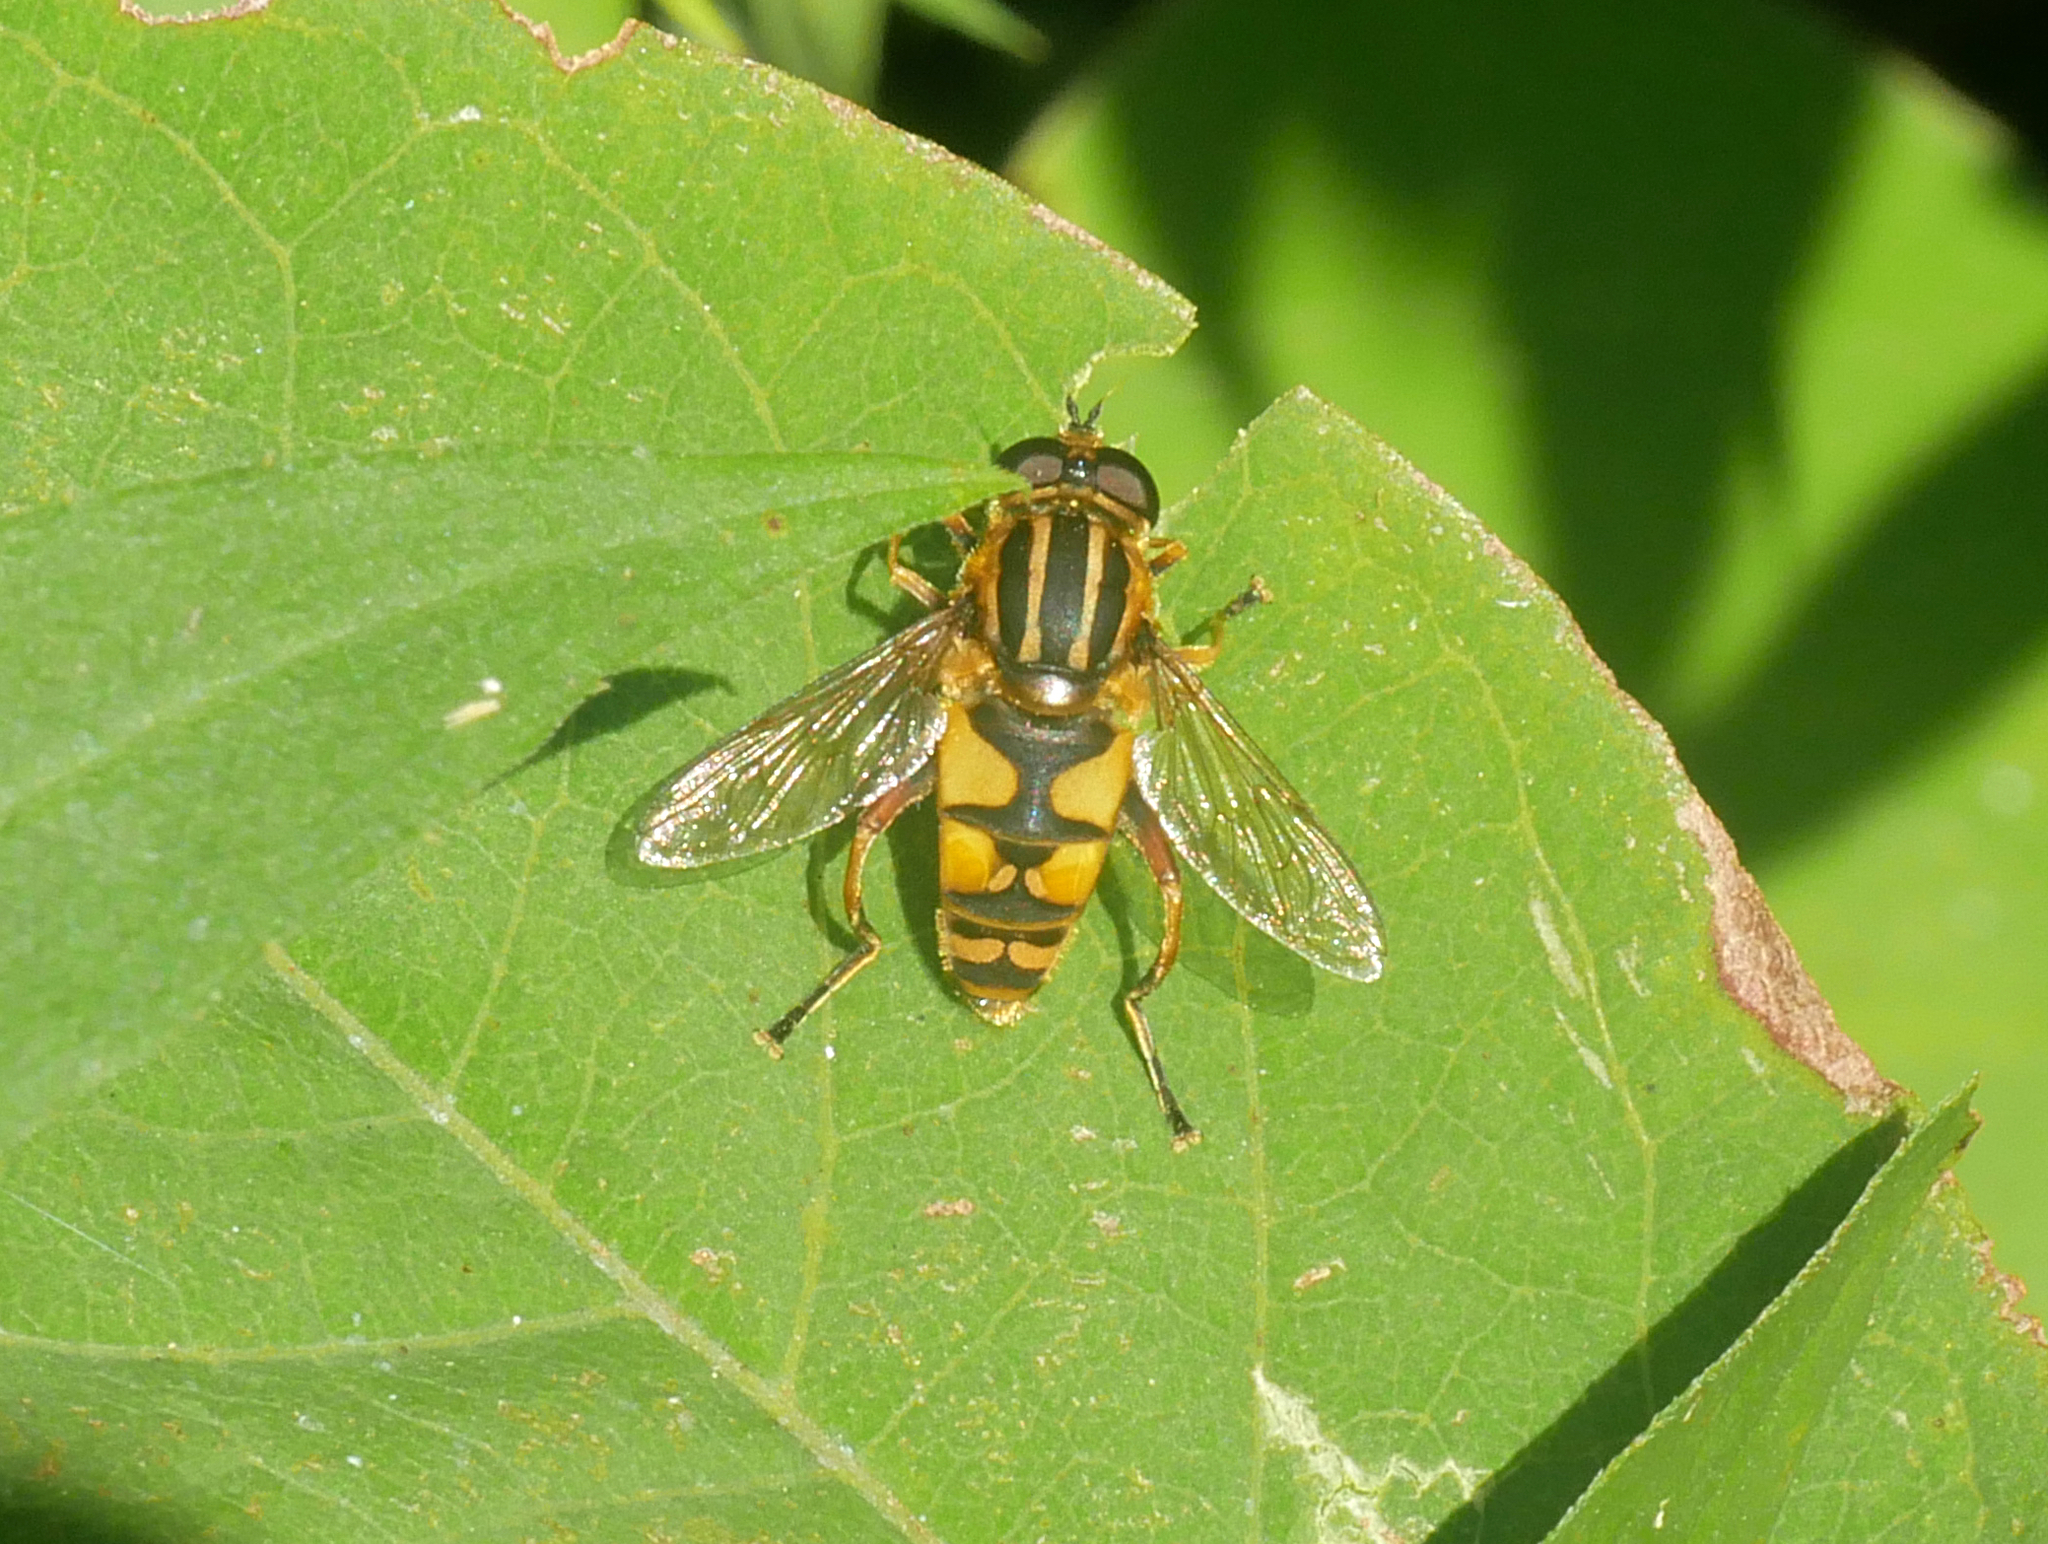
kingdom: Animalia
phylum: Arthropoda
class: Insecta
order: Diptera
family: Syrphidae
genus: Helophilus
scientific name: Helophilus pendulus
